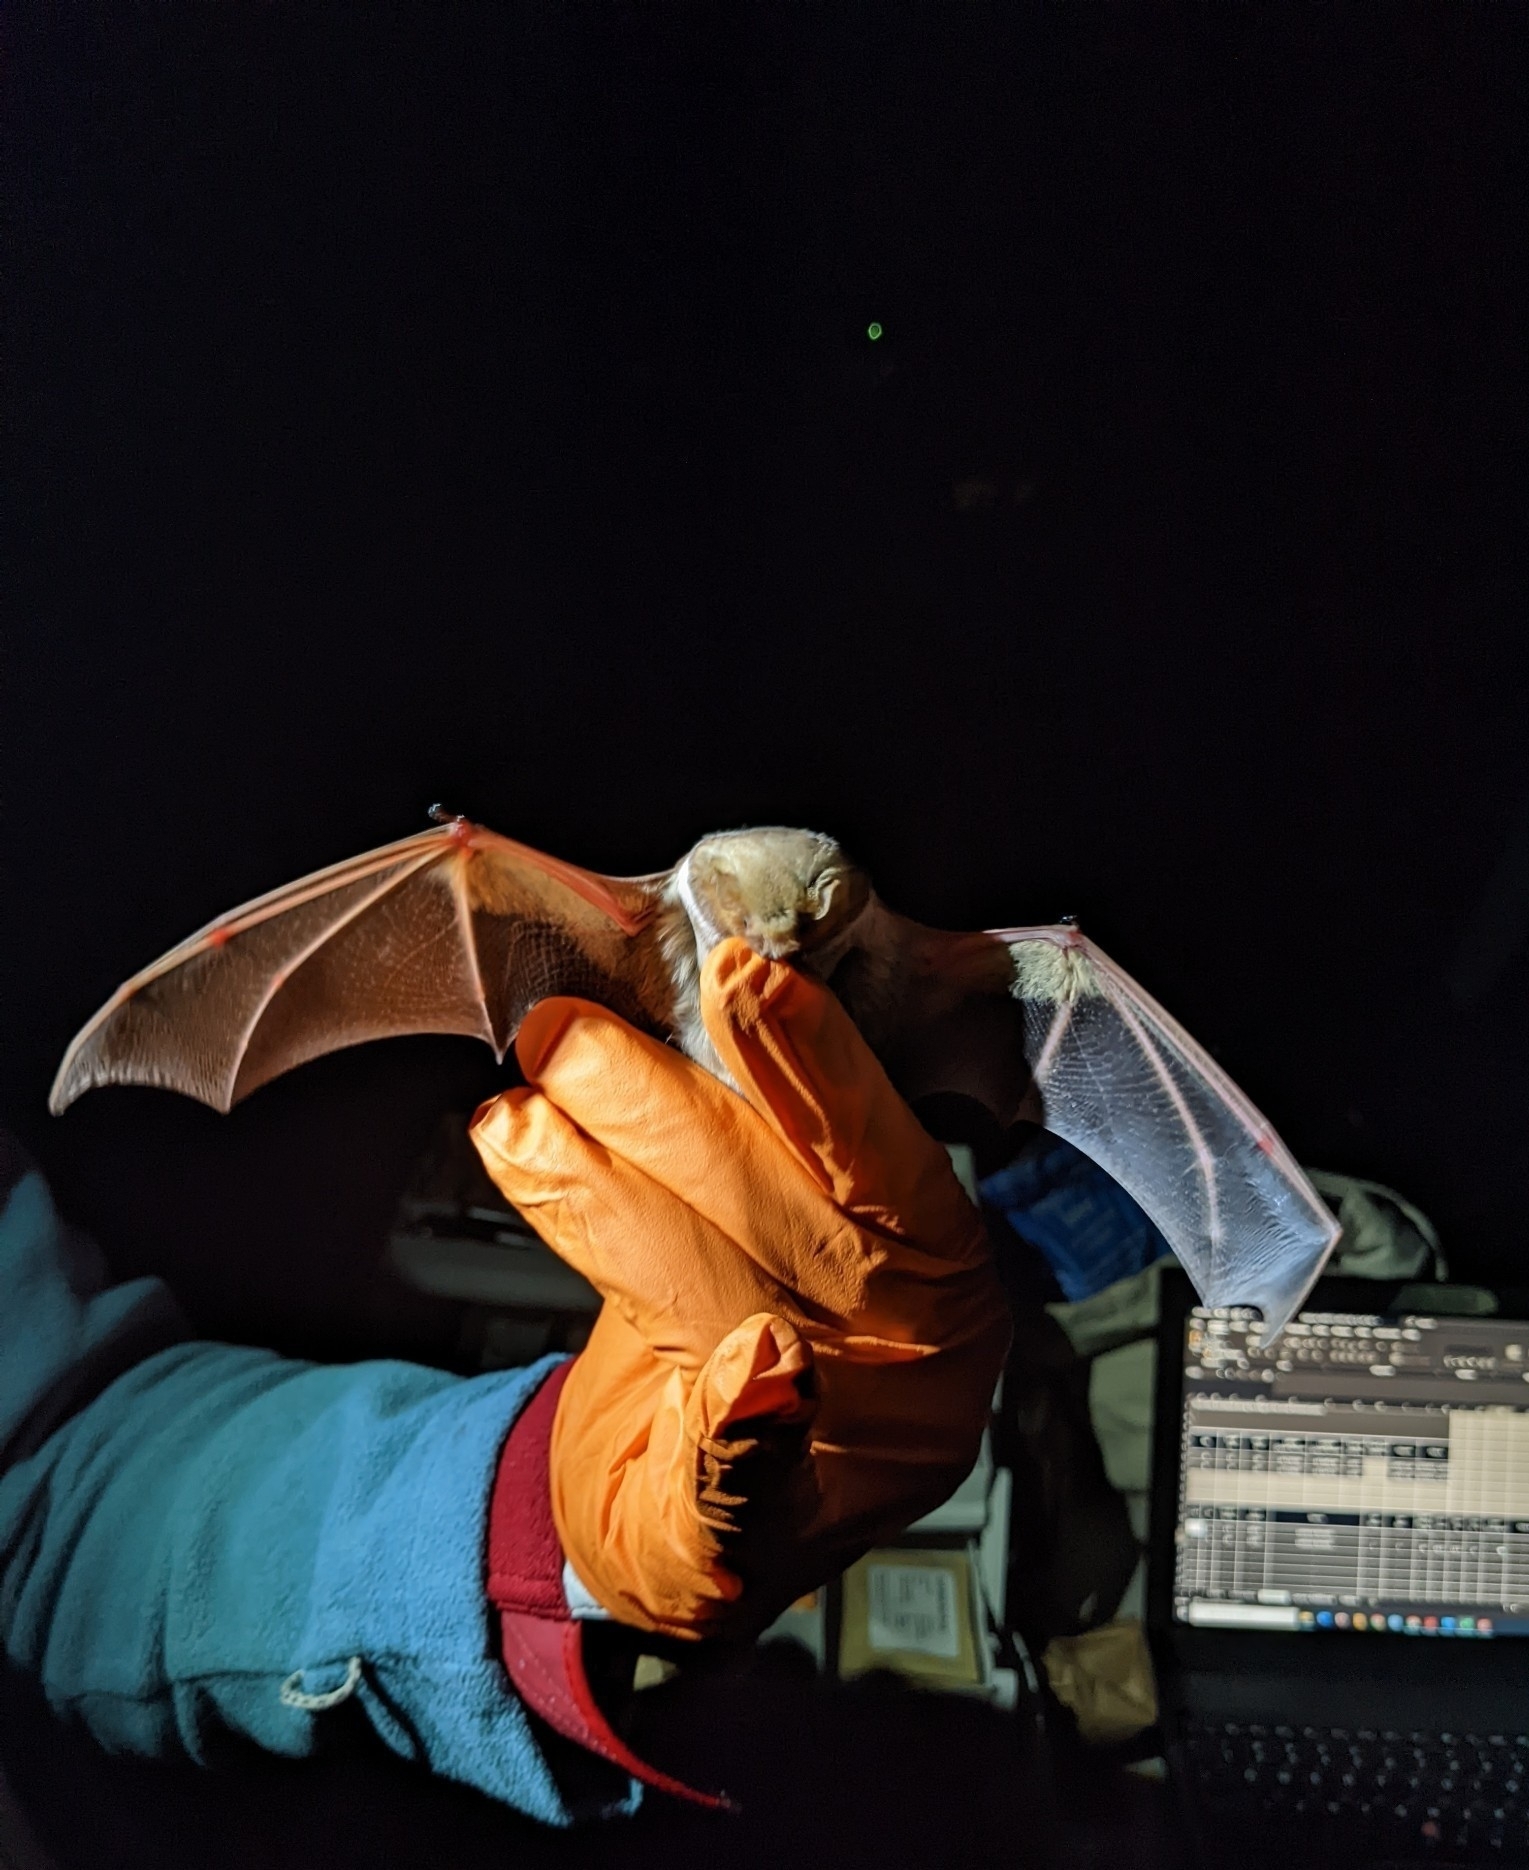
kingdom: Animalia
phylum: Chordata
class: Mammalia
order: Chiroptera
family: Vespertilionidae
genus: Lasiurus
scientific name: Lasiurus borealis
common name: Eastern red bat
